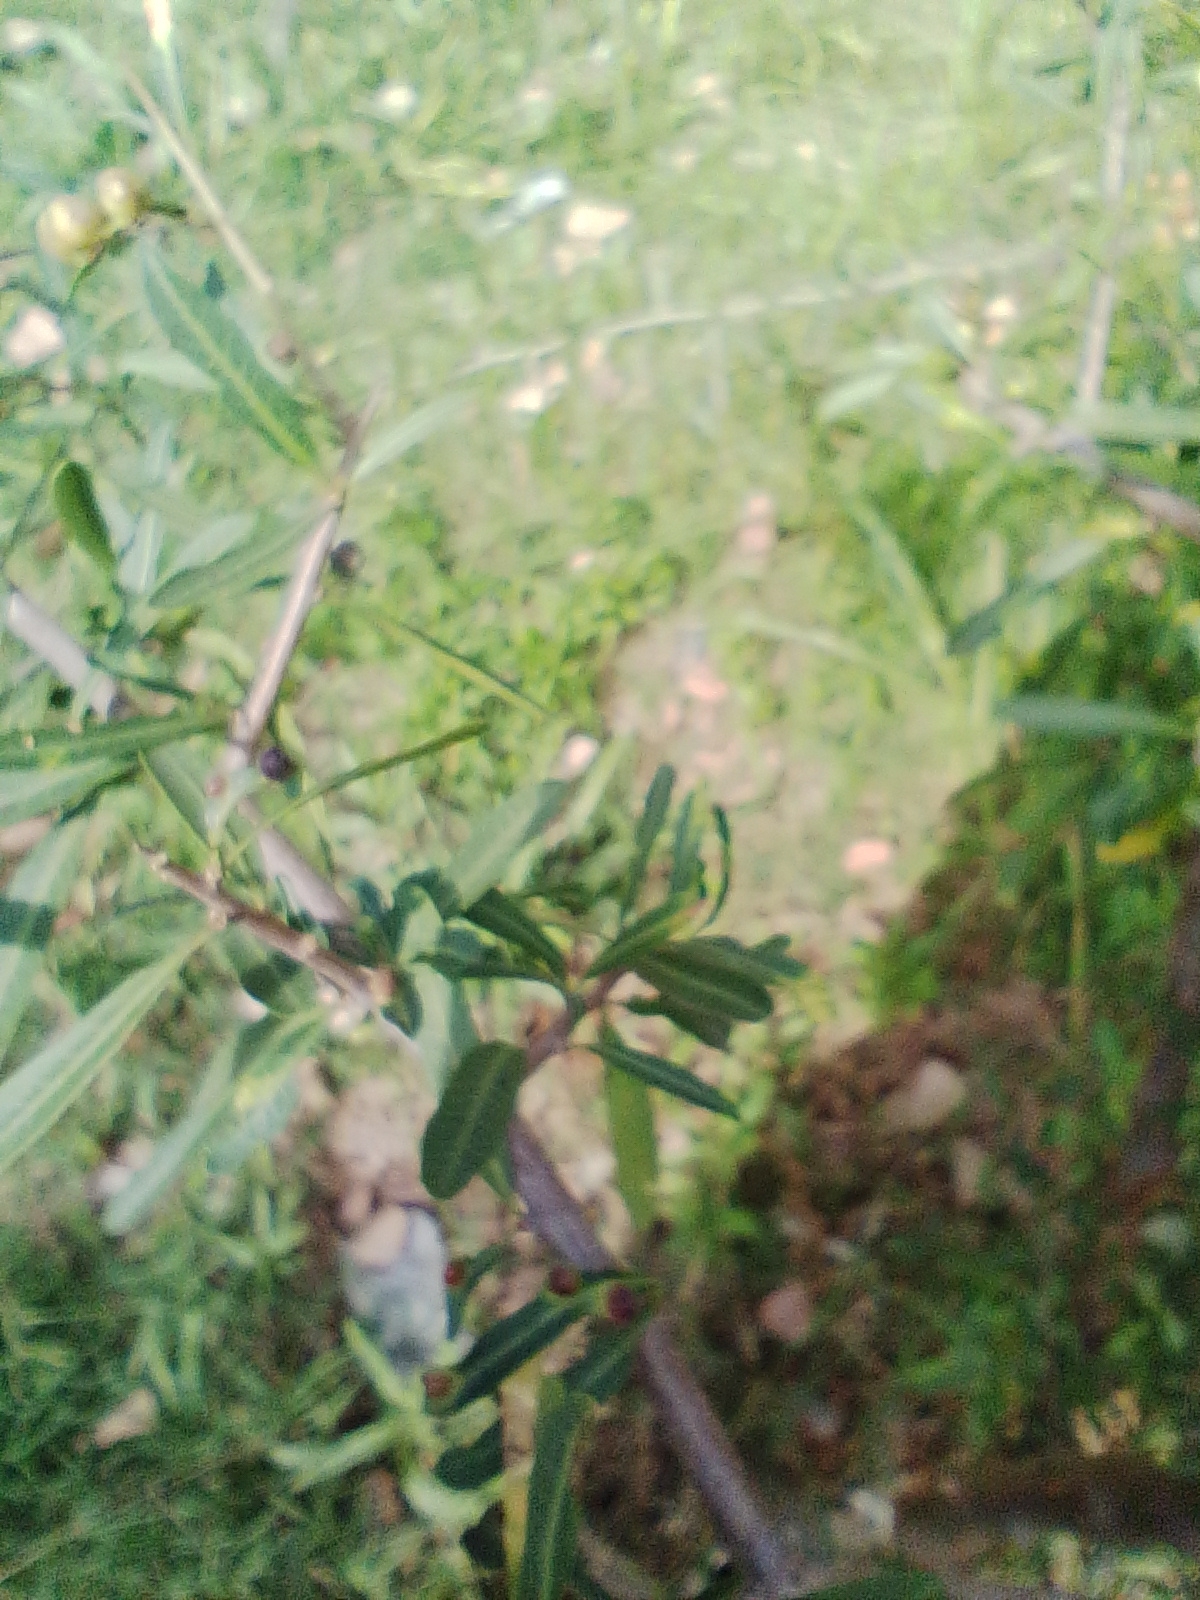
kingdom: Plantae
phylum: Tracheophyta
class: Magnoliopsida
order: Sapindales
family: Anacardiaceae
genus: Schinus
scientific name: Schinus longifolia
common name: Longleaf peppertree
